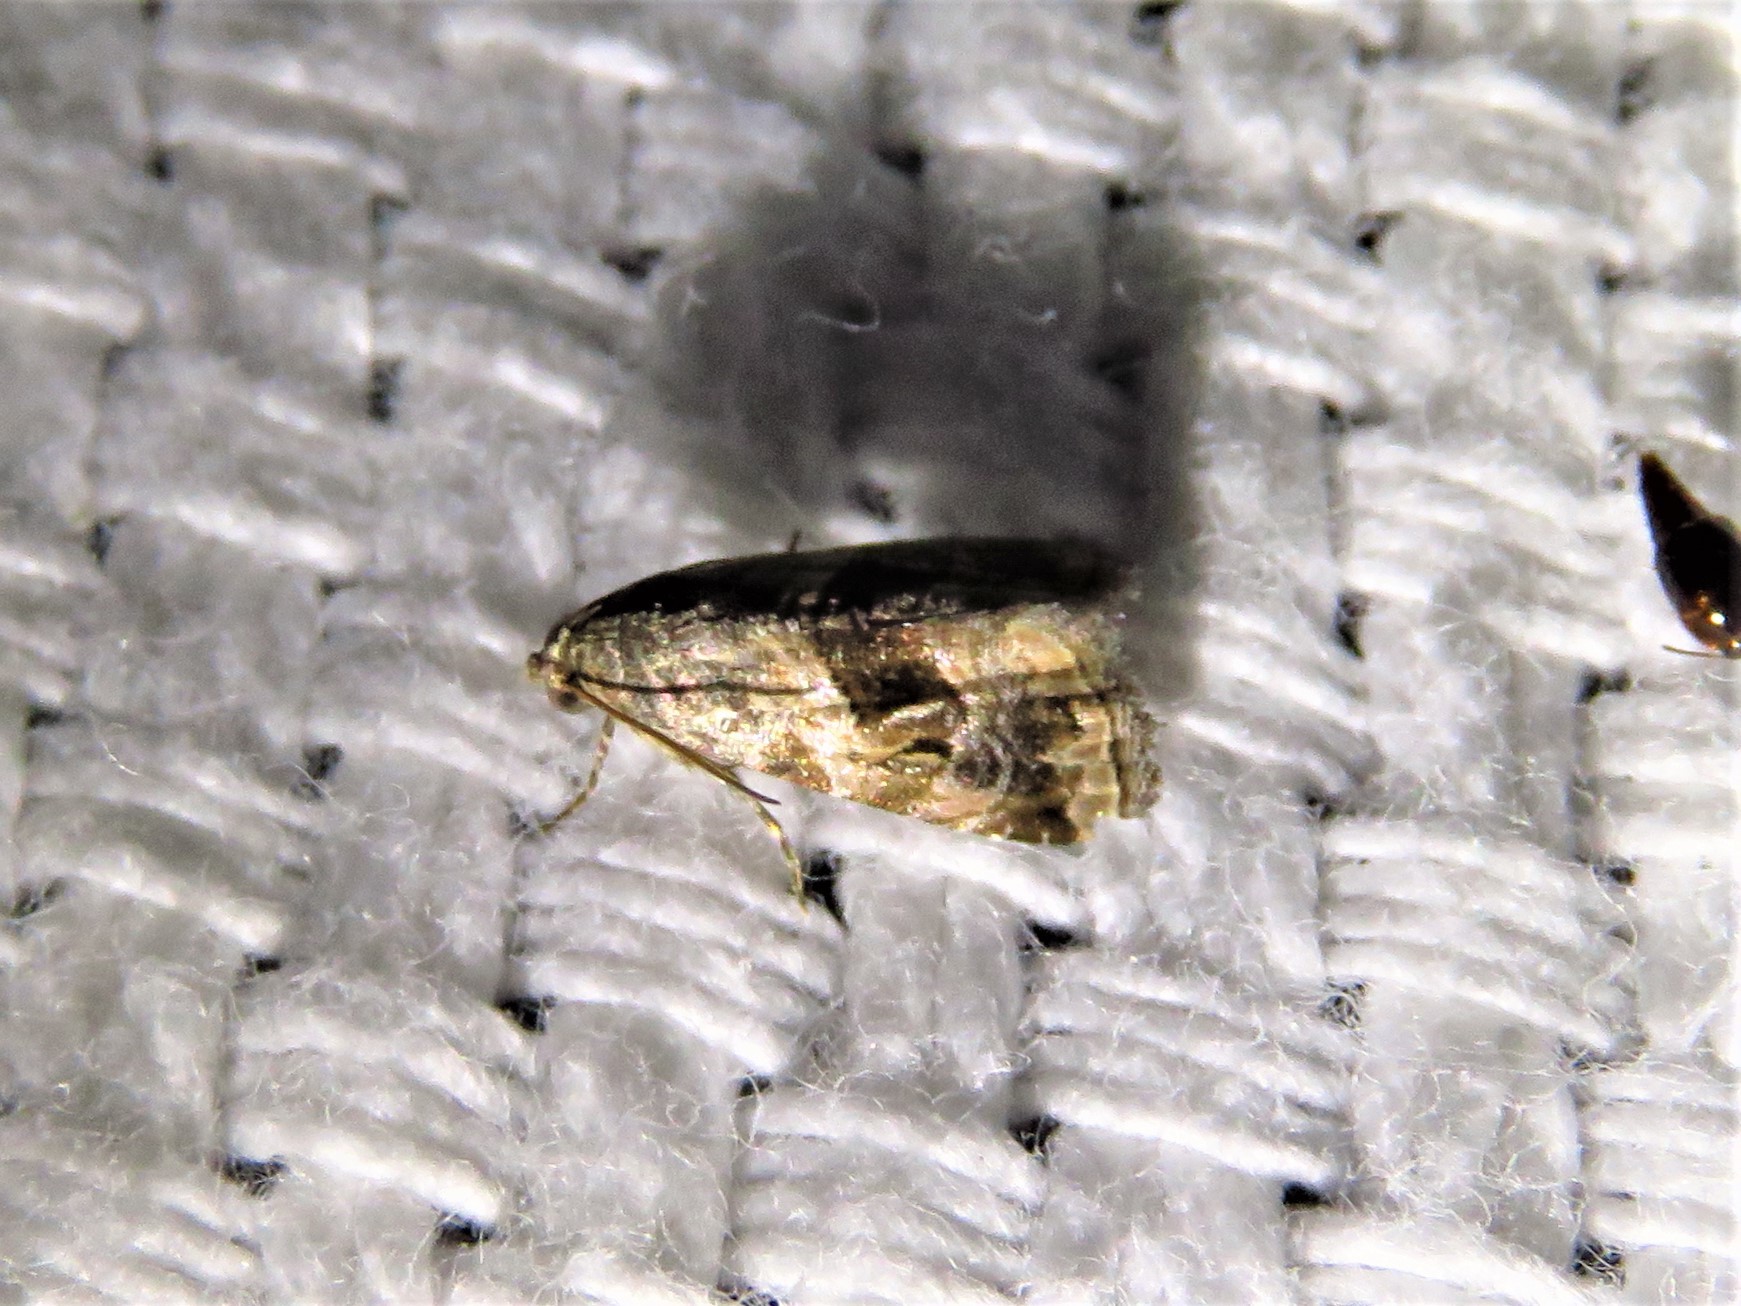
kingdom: Animalia
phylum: Arthropoda
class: Insecta
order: Lepidoptera
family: Noctuidae
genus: Tripudia
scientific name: Tripudia quadrifera
